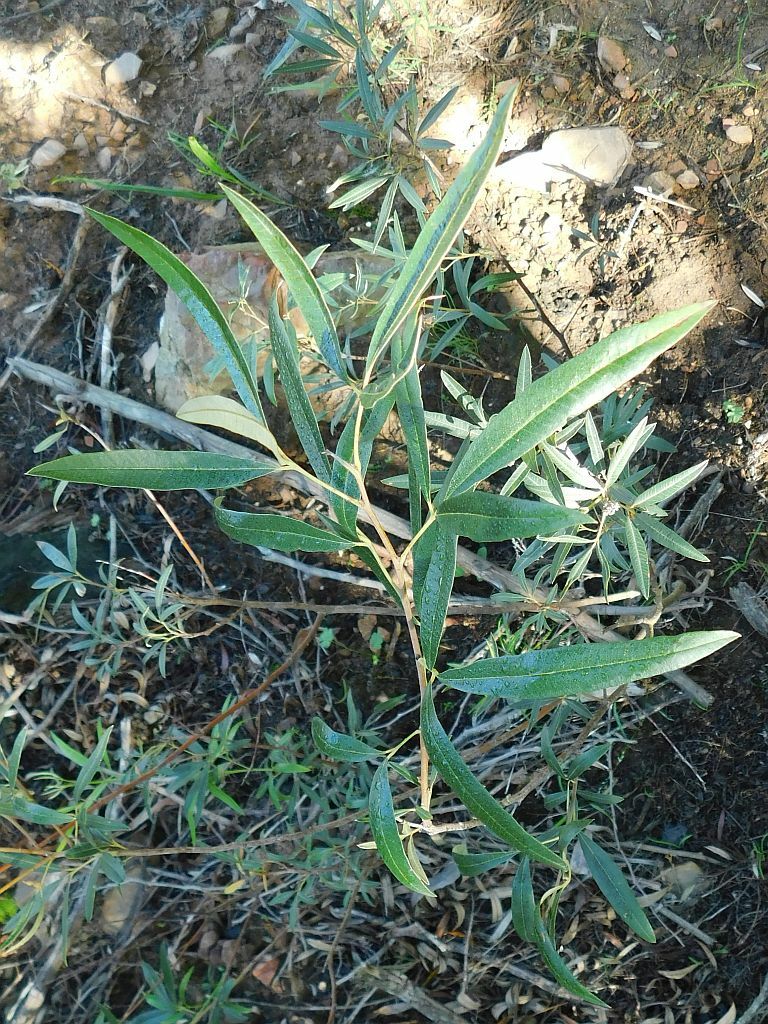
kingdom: Plantae
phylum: Tracheophyta
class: Magnoliopsida
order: Sapindales
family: Anacardiaceae
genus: Searsia
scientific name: Searsia angustifolia
